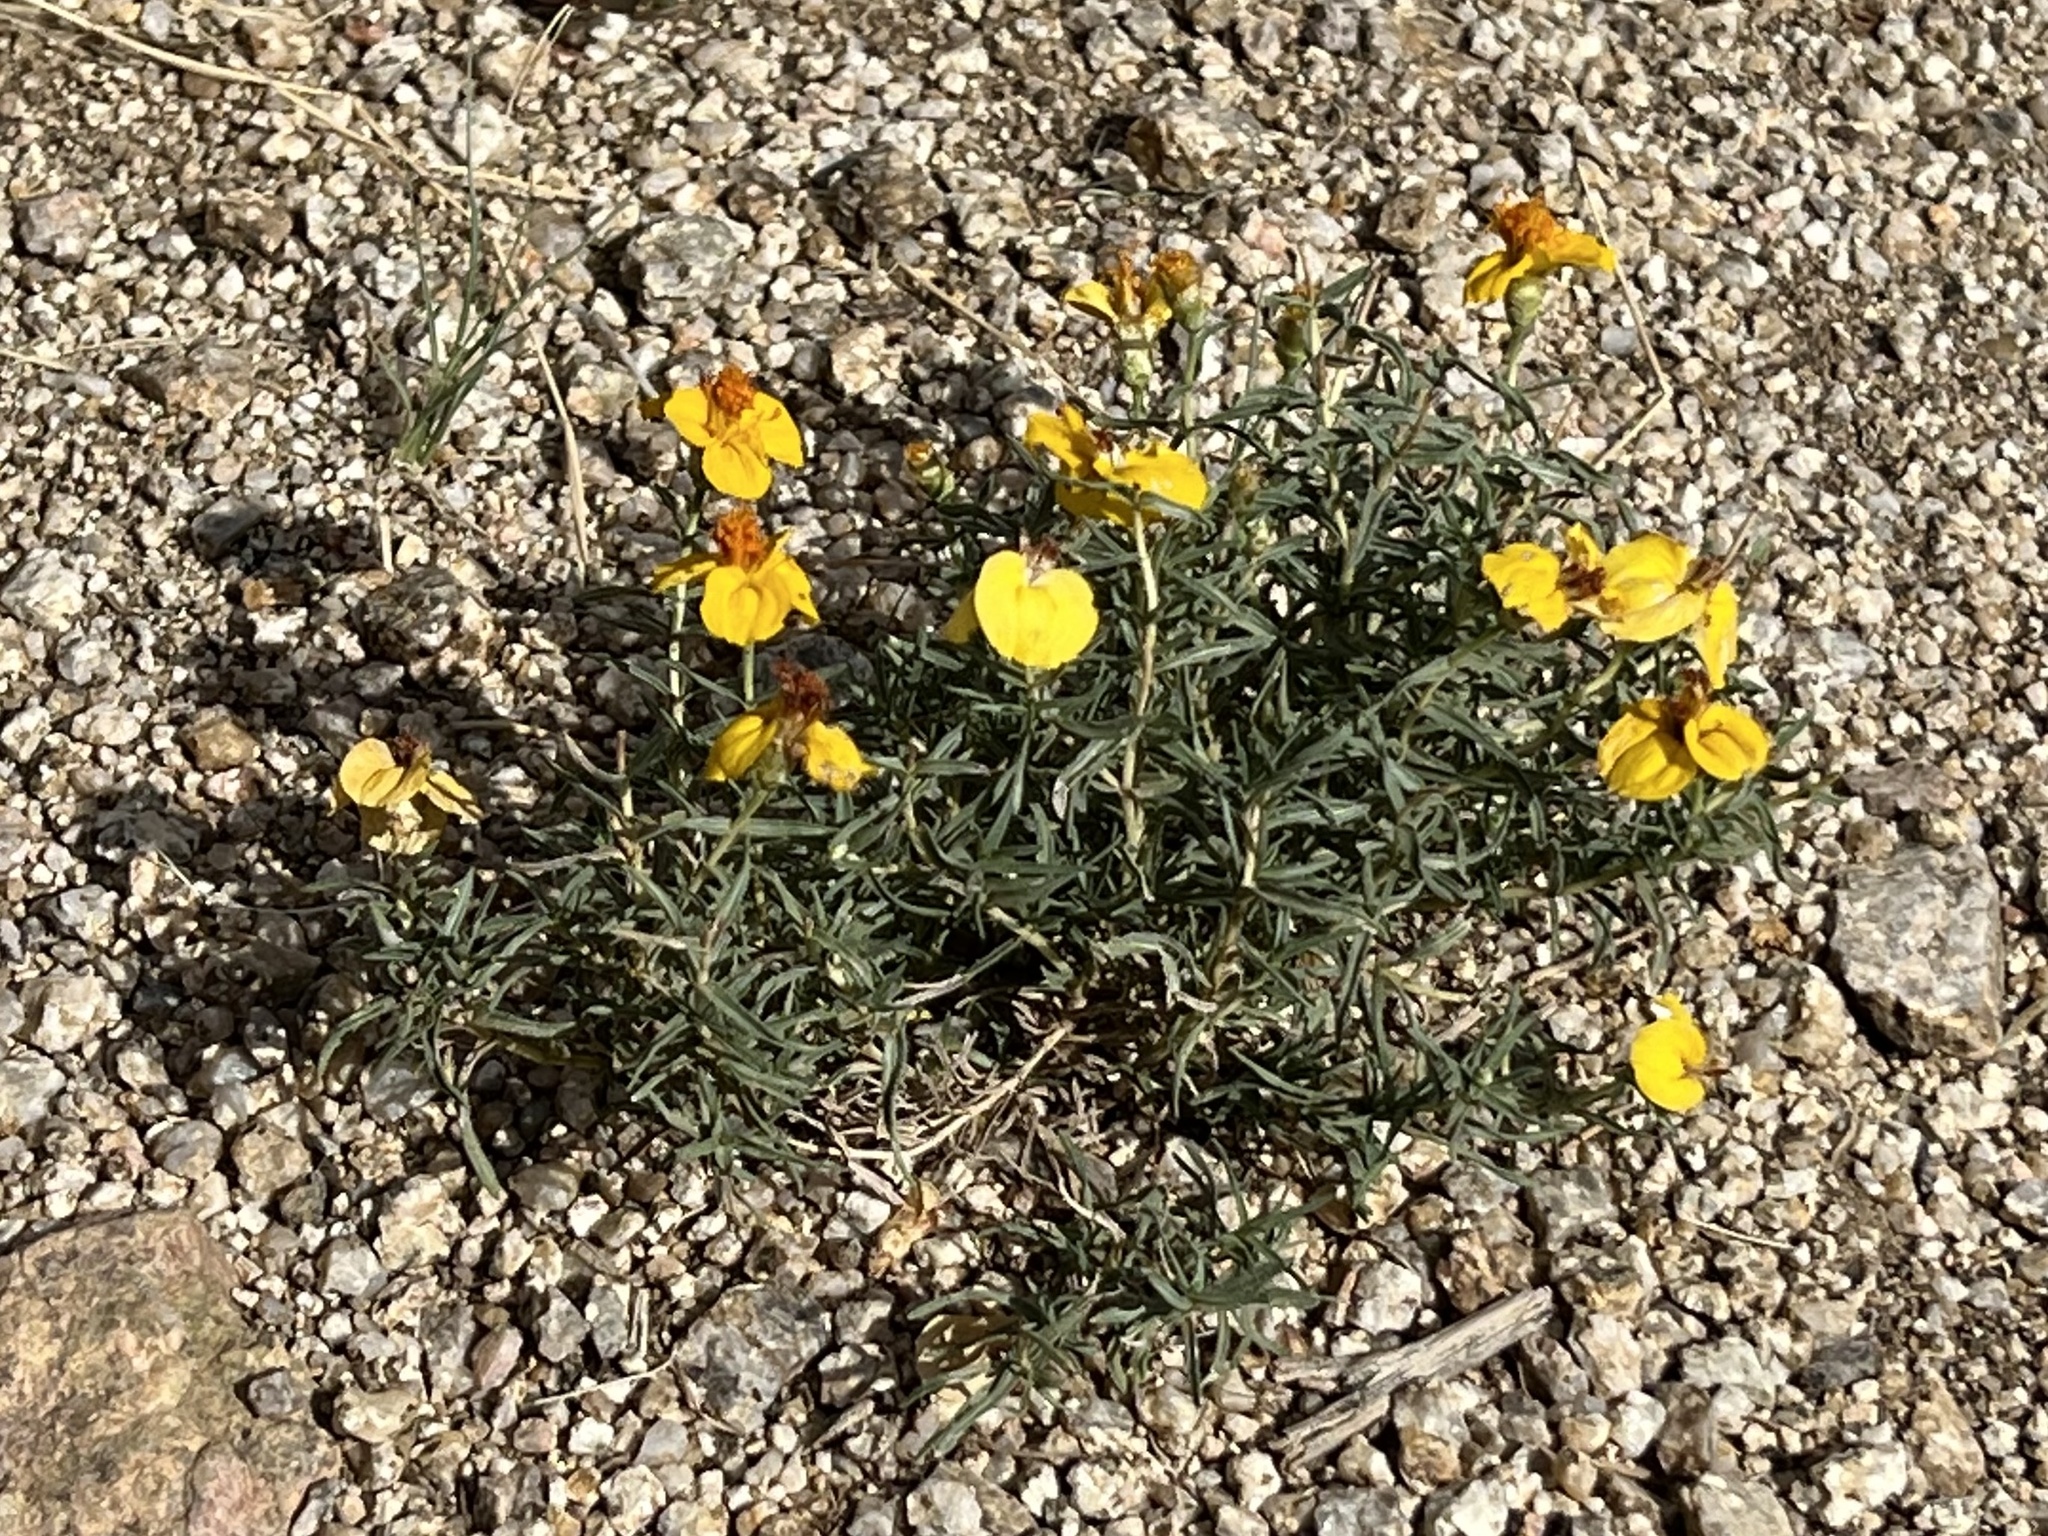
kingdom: Plantae
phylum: Tracheophyta
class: Magnoliopsida
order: Asterales
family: Asteraceae
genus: Zinnia
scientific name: Zinnia grandiflora
